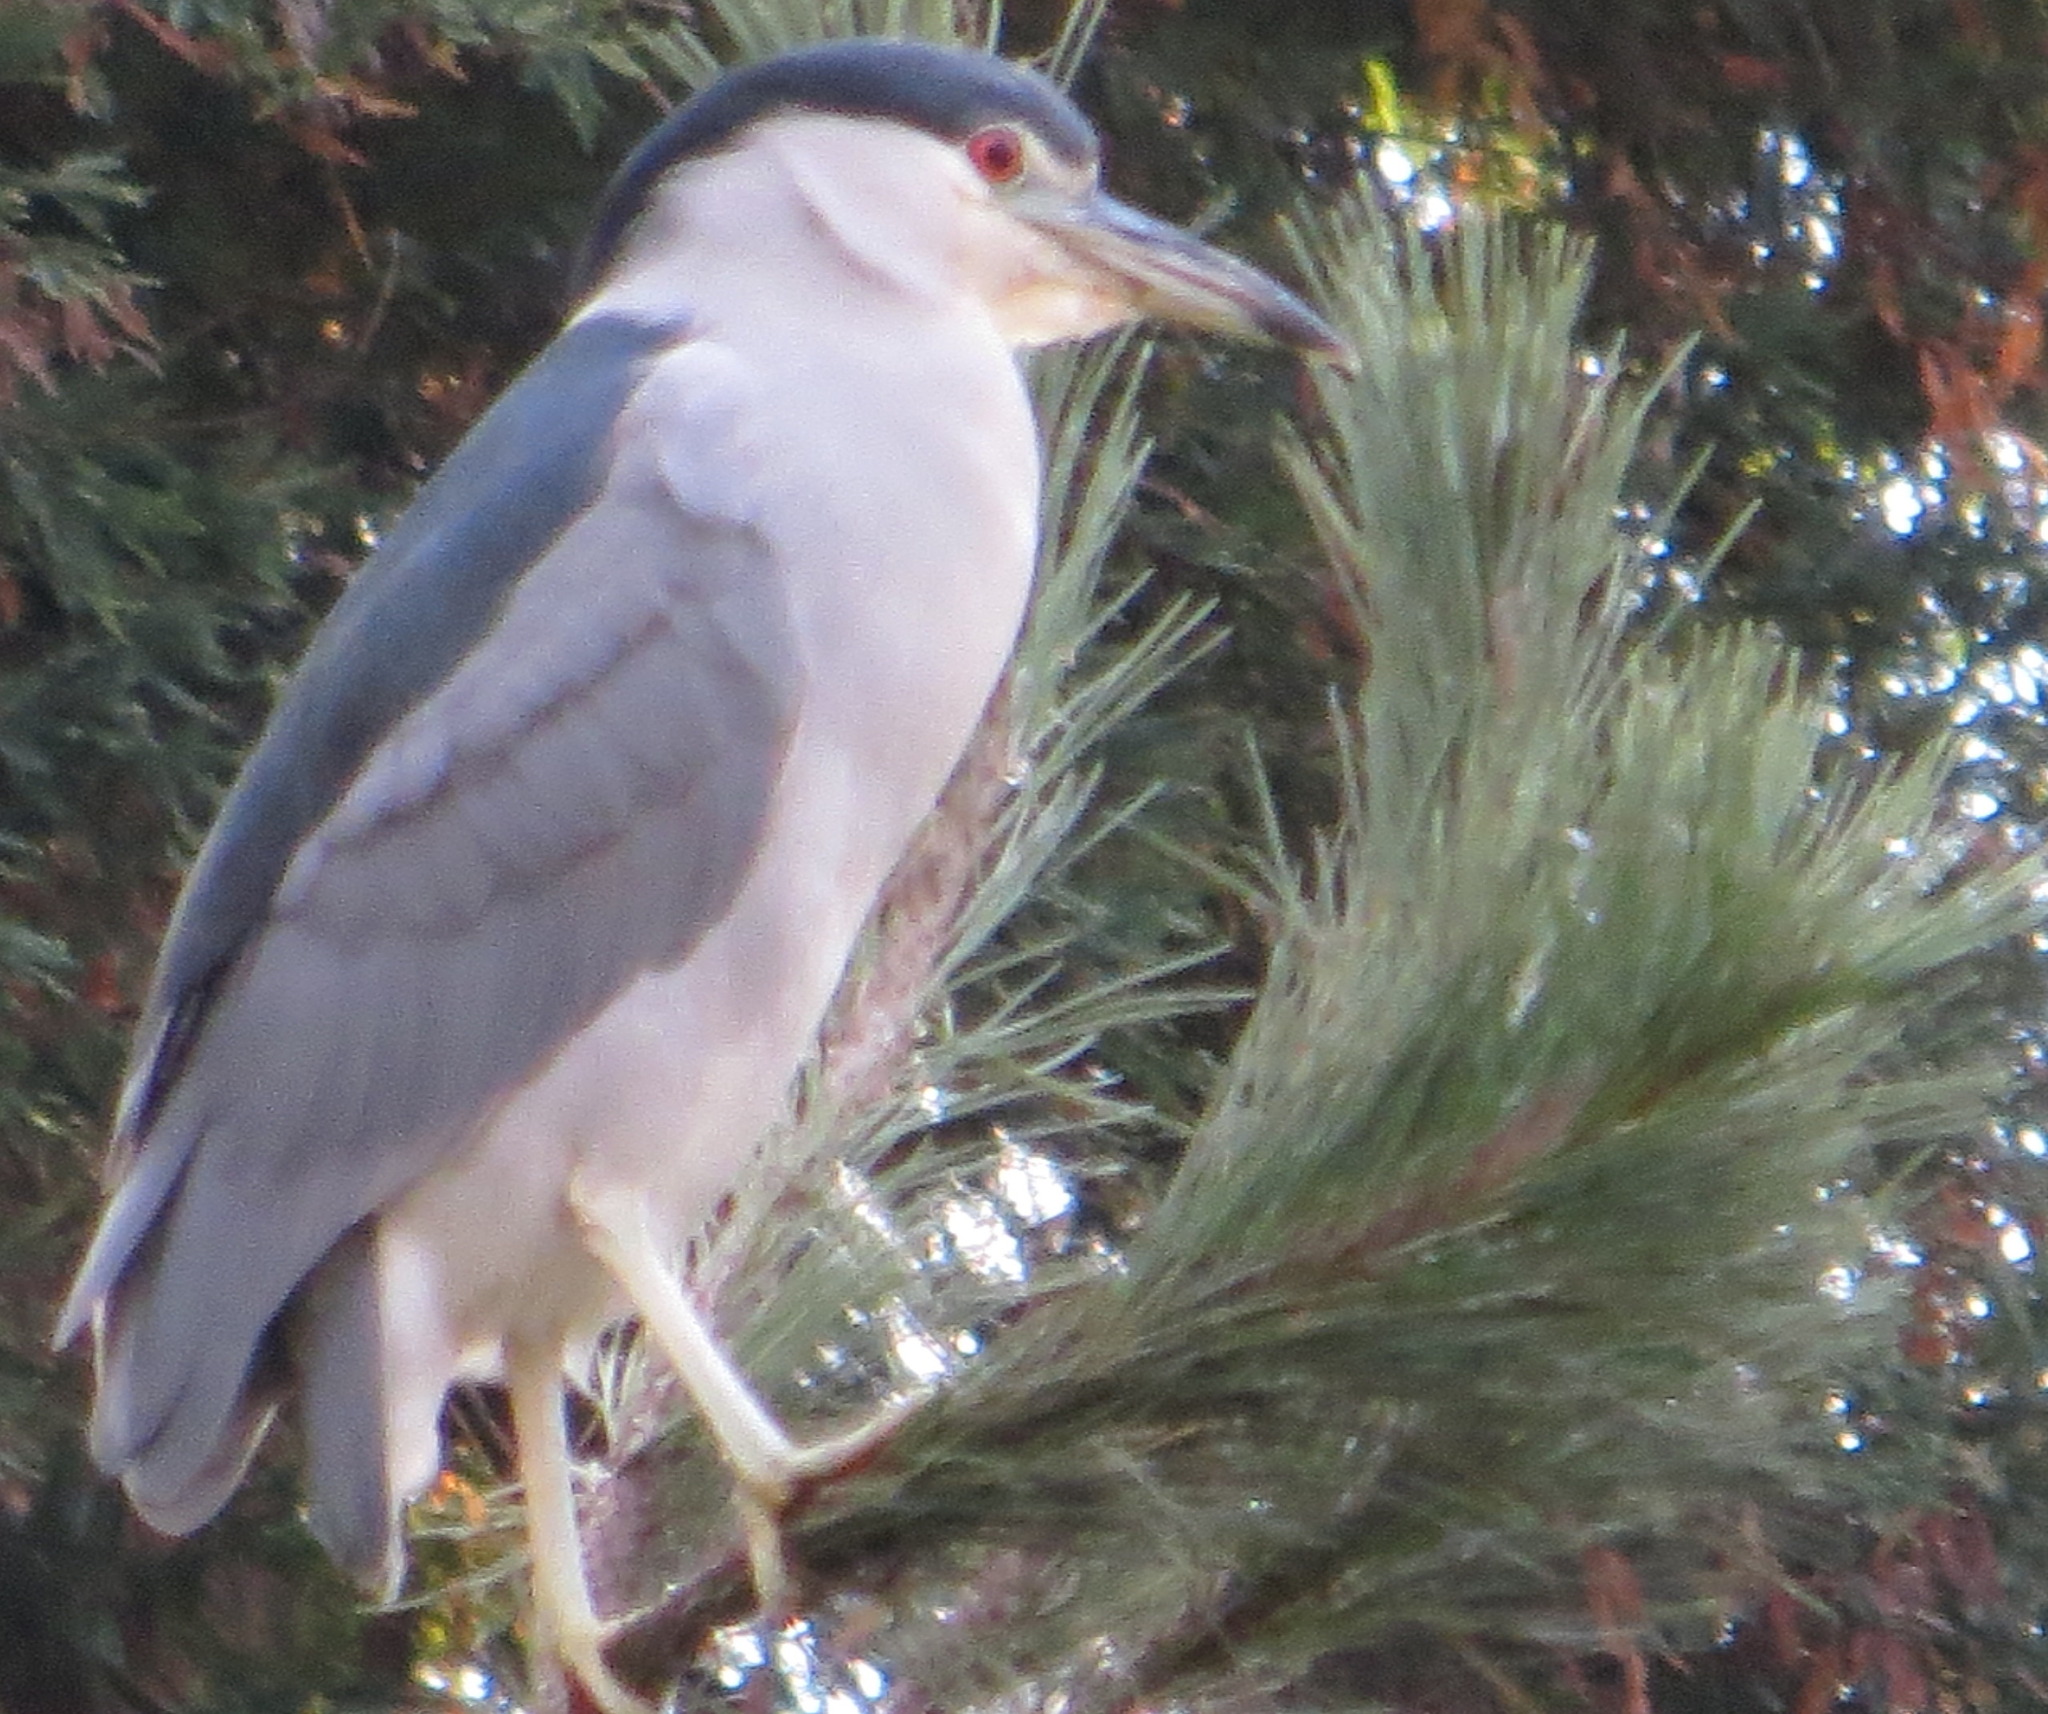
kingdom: Animalia
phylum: Chordata
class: Aves
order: Pelecaniformes
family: Ardeidae
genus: Nycticorax
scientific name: Nycticorax nycticorax
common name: Black-crowned night heron
